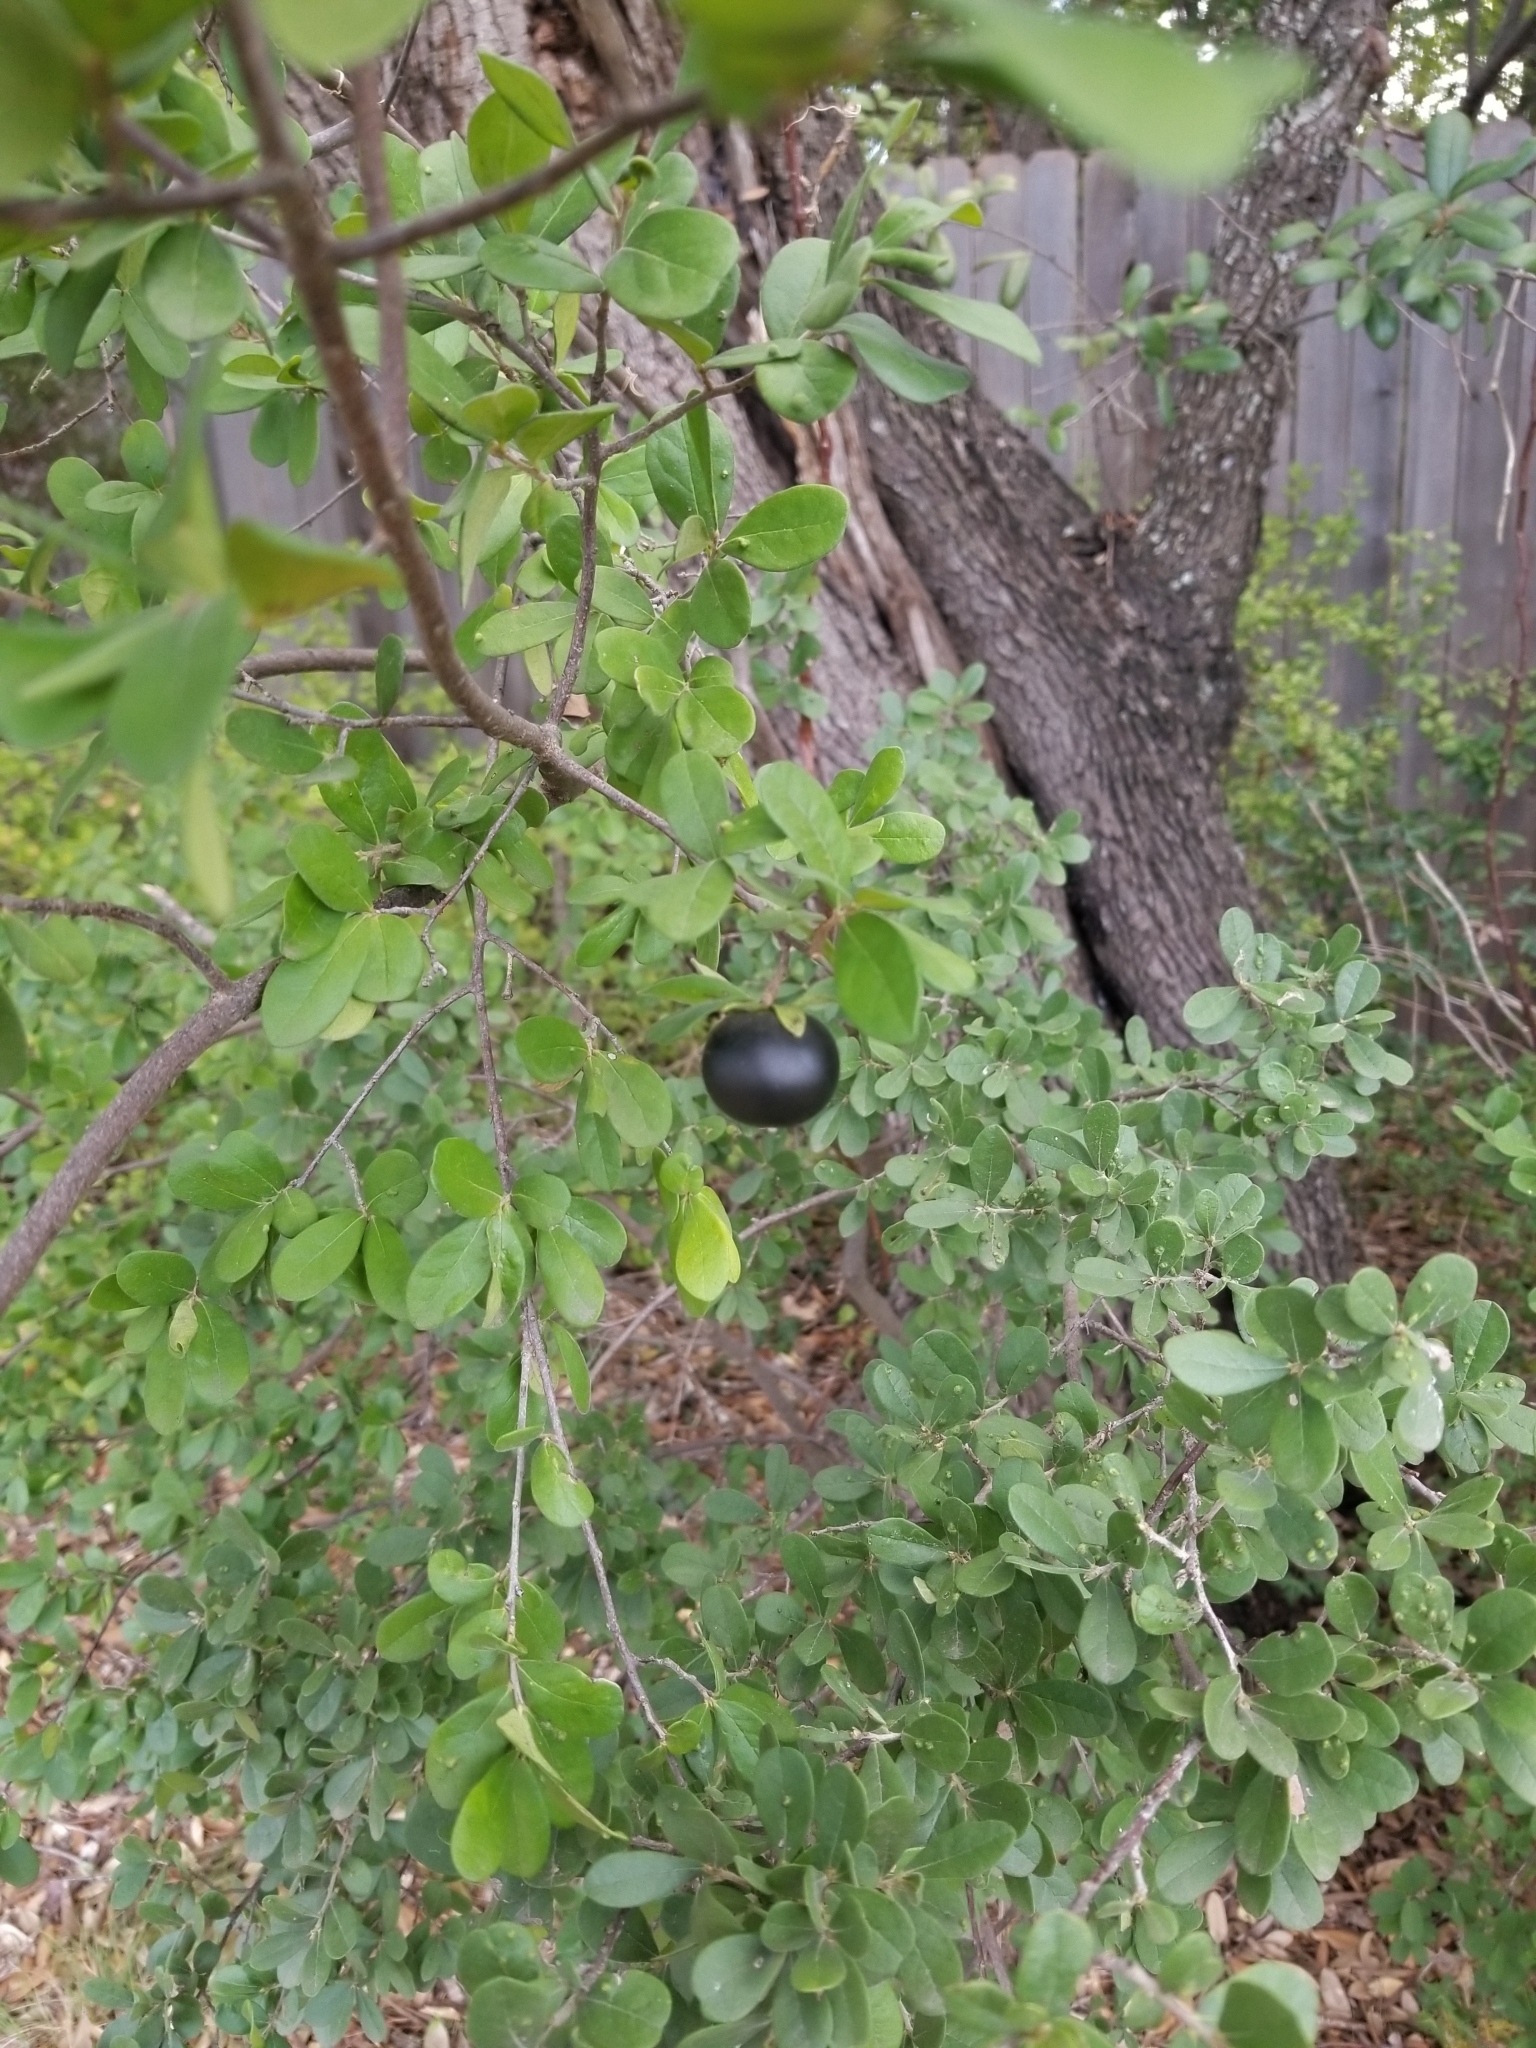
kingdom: Plantae
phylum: Tracheophyta
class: Magnoliopsida
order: Ericales
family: Ebenaceae
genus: Diospyros
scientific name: Diospyros texana
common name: Texas persimmon
